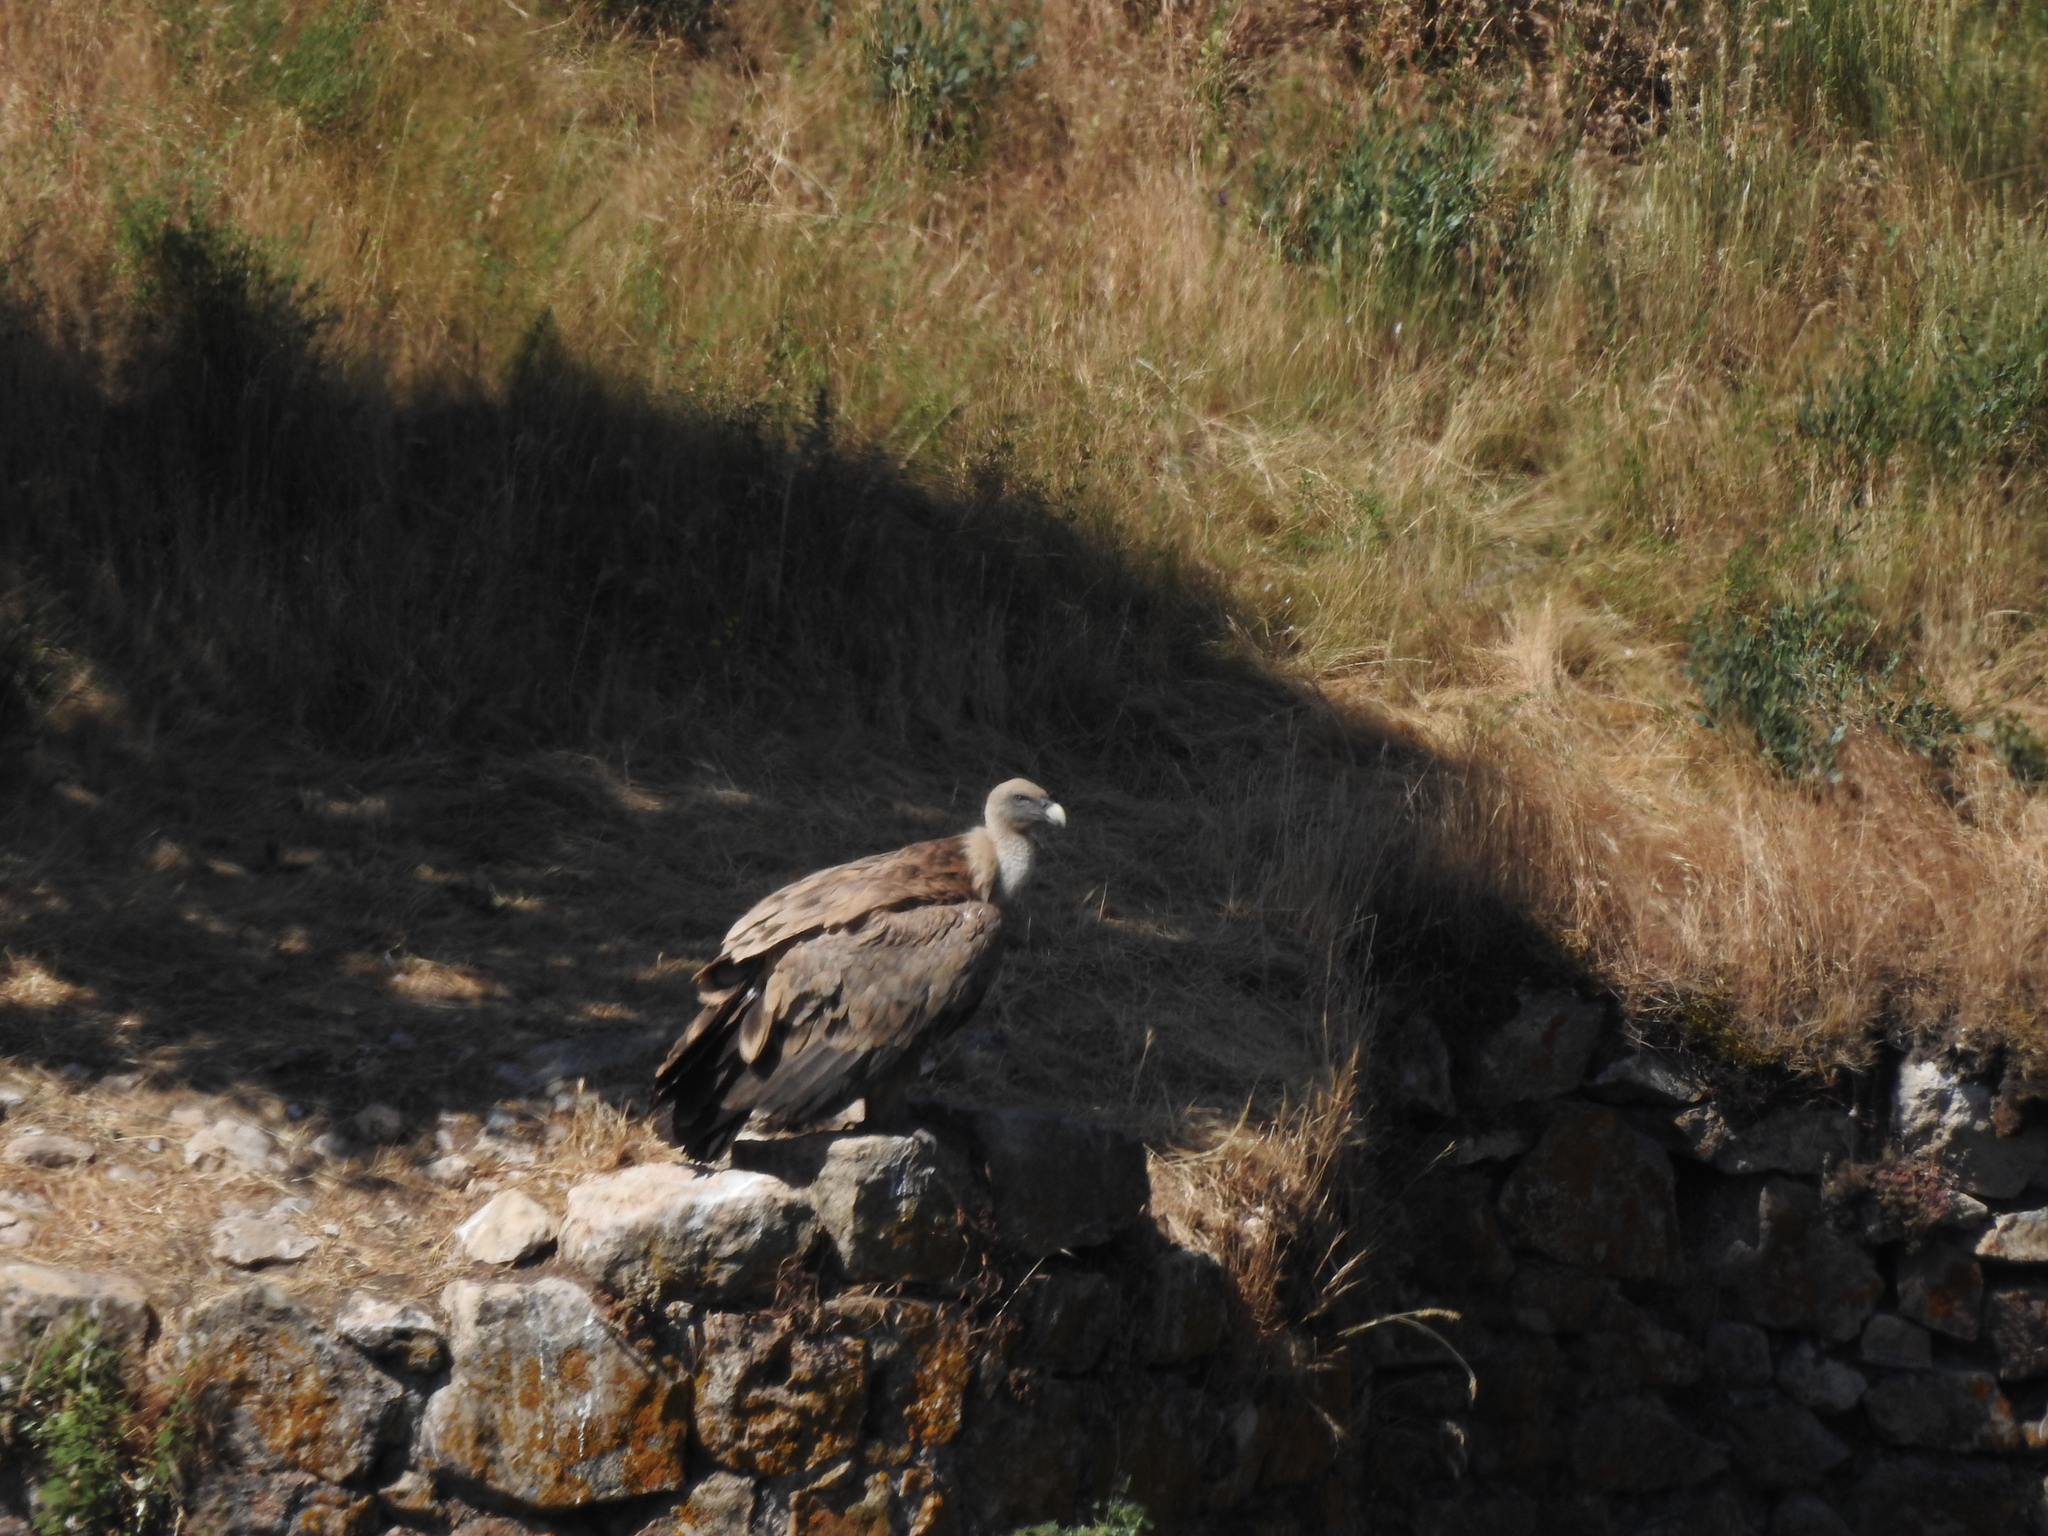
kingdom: Animalia
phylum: Chordata
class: Aves
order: Accipitriformes
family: Accipitridae
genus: Gyps
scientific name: Gyps fulvus
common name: Griffon vulture
